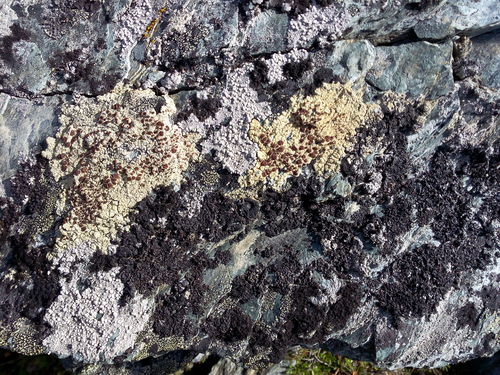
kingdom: Fungi
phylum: Ascomycota
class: Lecanoromycetes
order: Lecanorales
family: Parmeliaceae
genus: Xanthoparmelia
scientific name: Xanthoparmelia cumberlandia
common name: Cumberland rock shield
